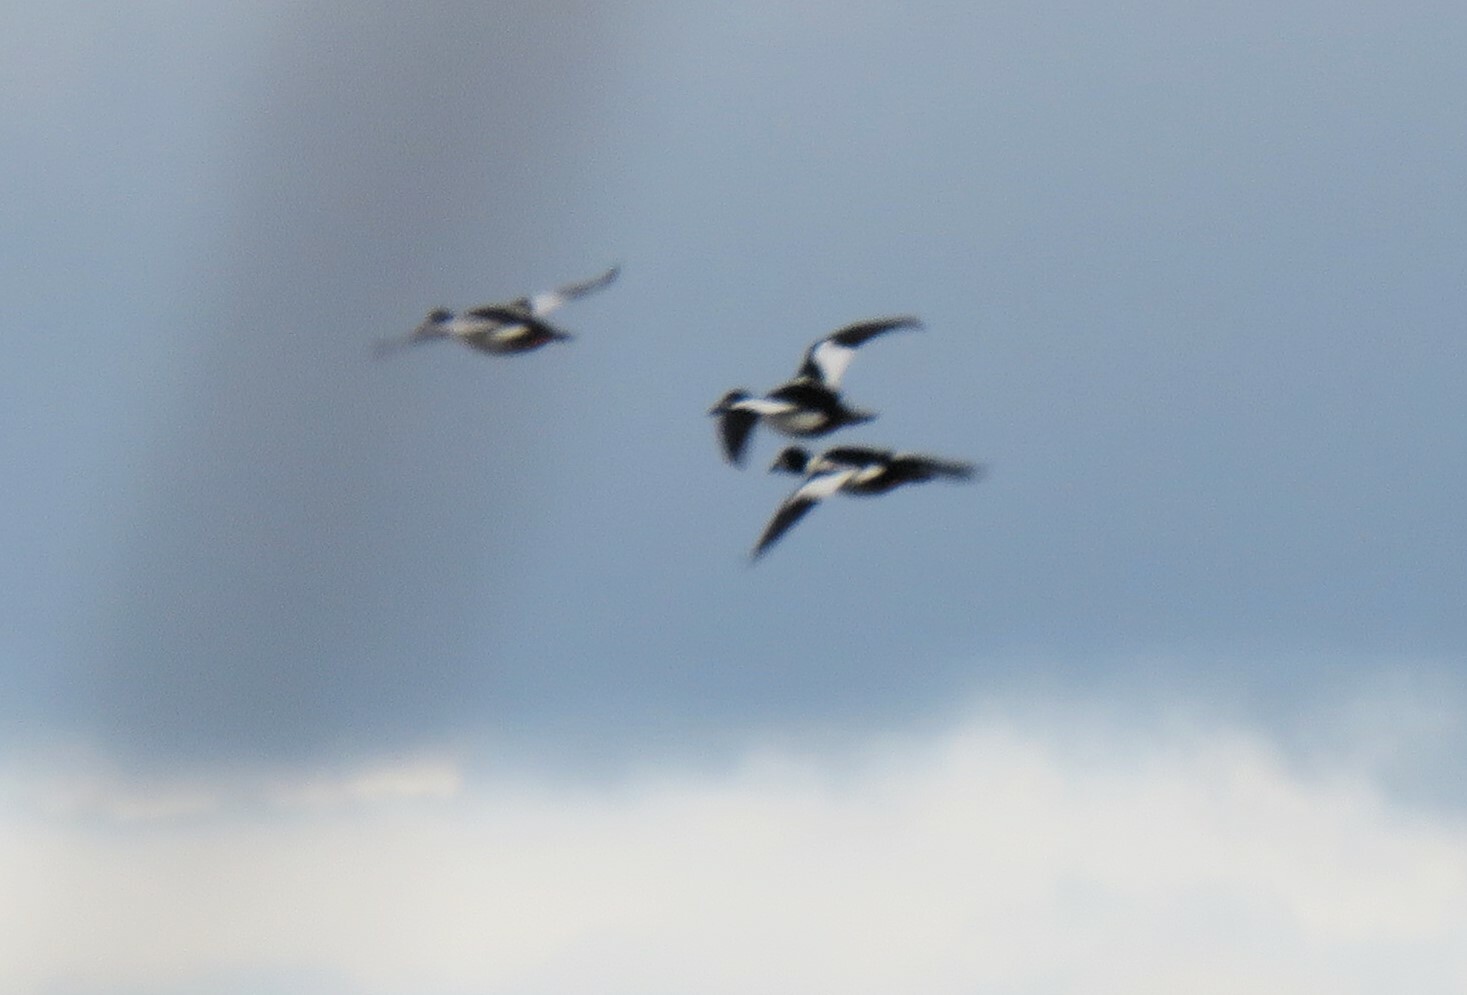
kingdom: Animalia
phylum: Chordata
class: Aves
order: Anseriformes
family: Anatidae
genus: Bucephala
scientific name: Bucephala clangula
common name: Common goldeneye
